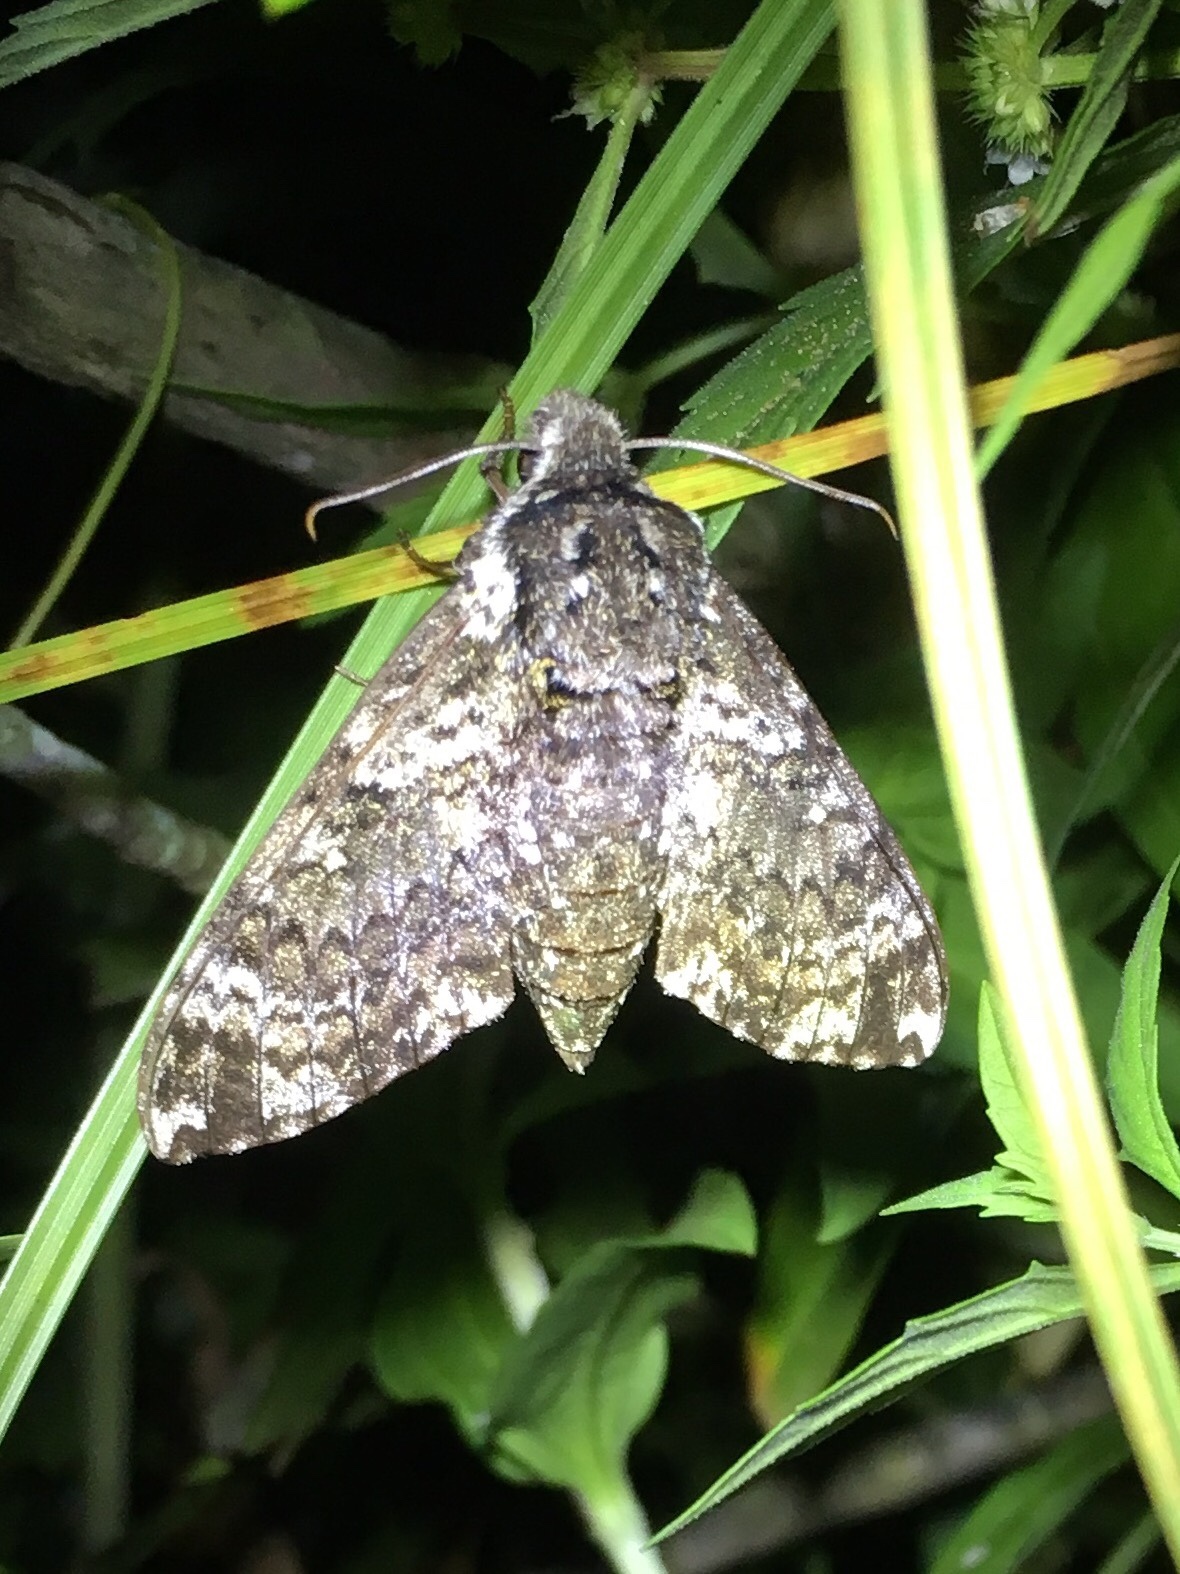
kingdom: Animalia
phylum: Arthropoda
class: Insecta
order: Lepidoptera
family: Sphingidae
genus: Dolba
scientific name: Dolba hyloeus
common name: Pawpaw sphinx
